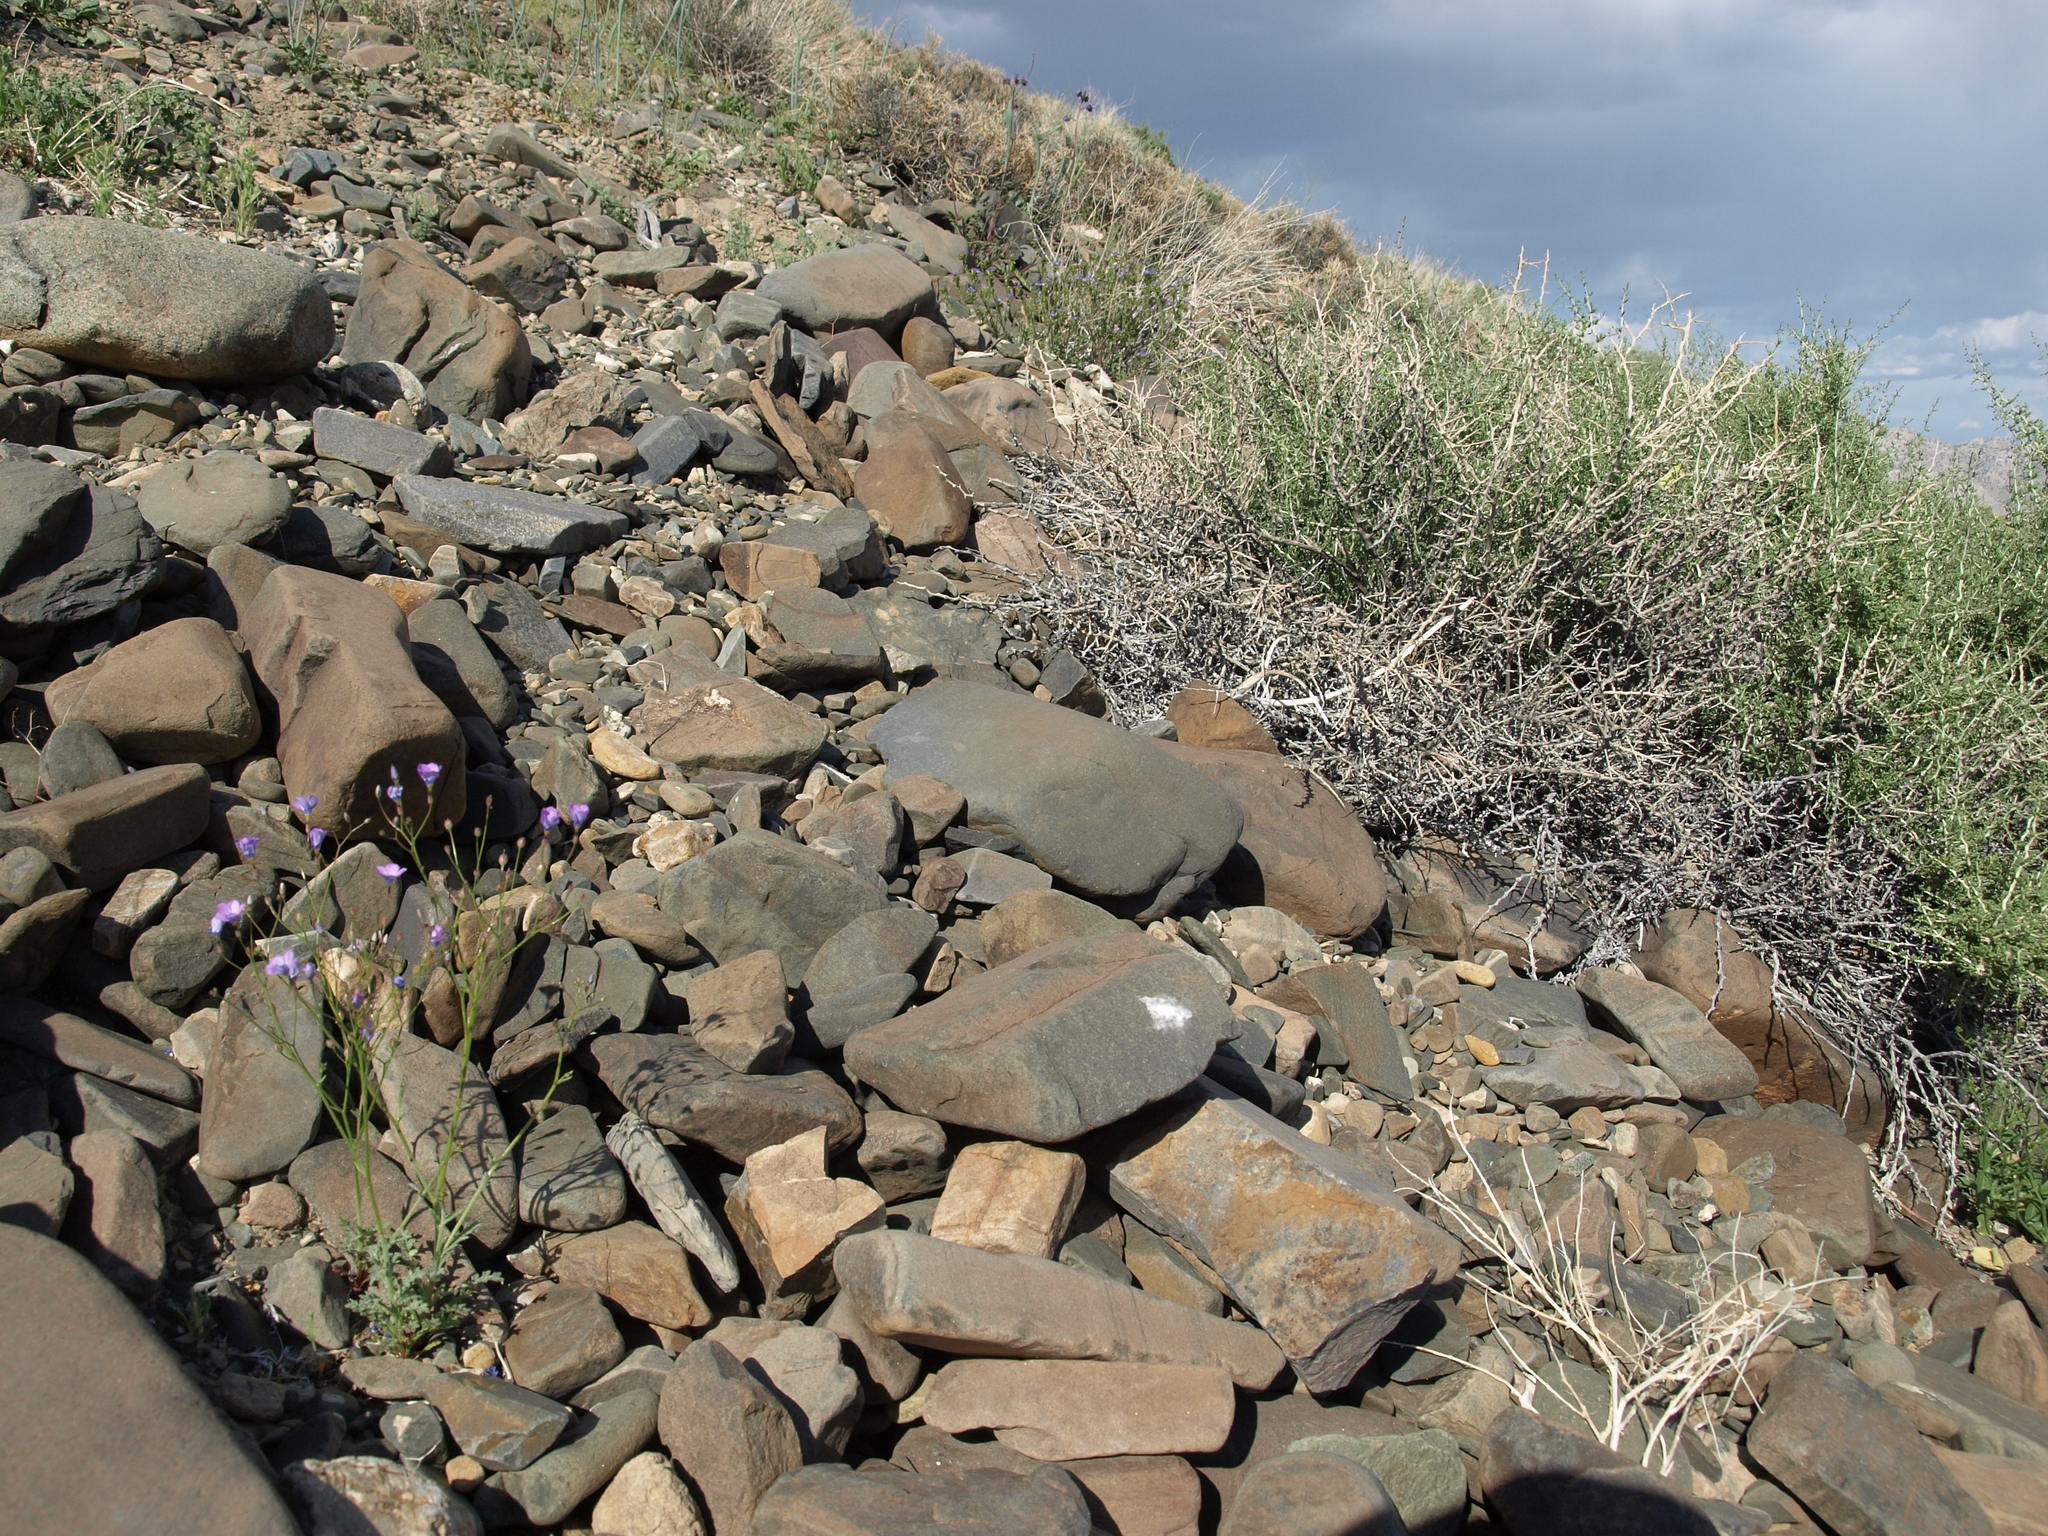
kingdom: Plantae
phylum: Tracheophyta
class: Magnoliopsida
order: Ericales
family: Polemoniaceae
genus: Gilia
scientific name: Gilia cana
